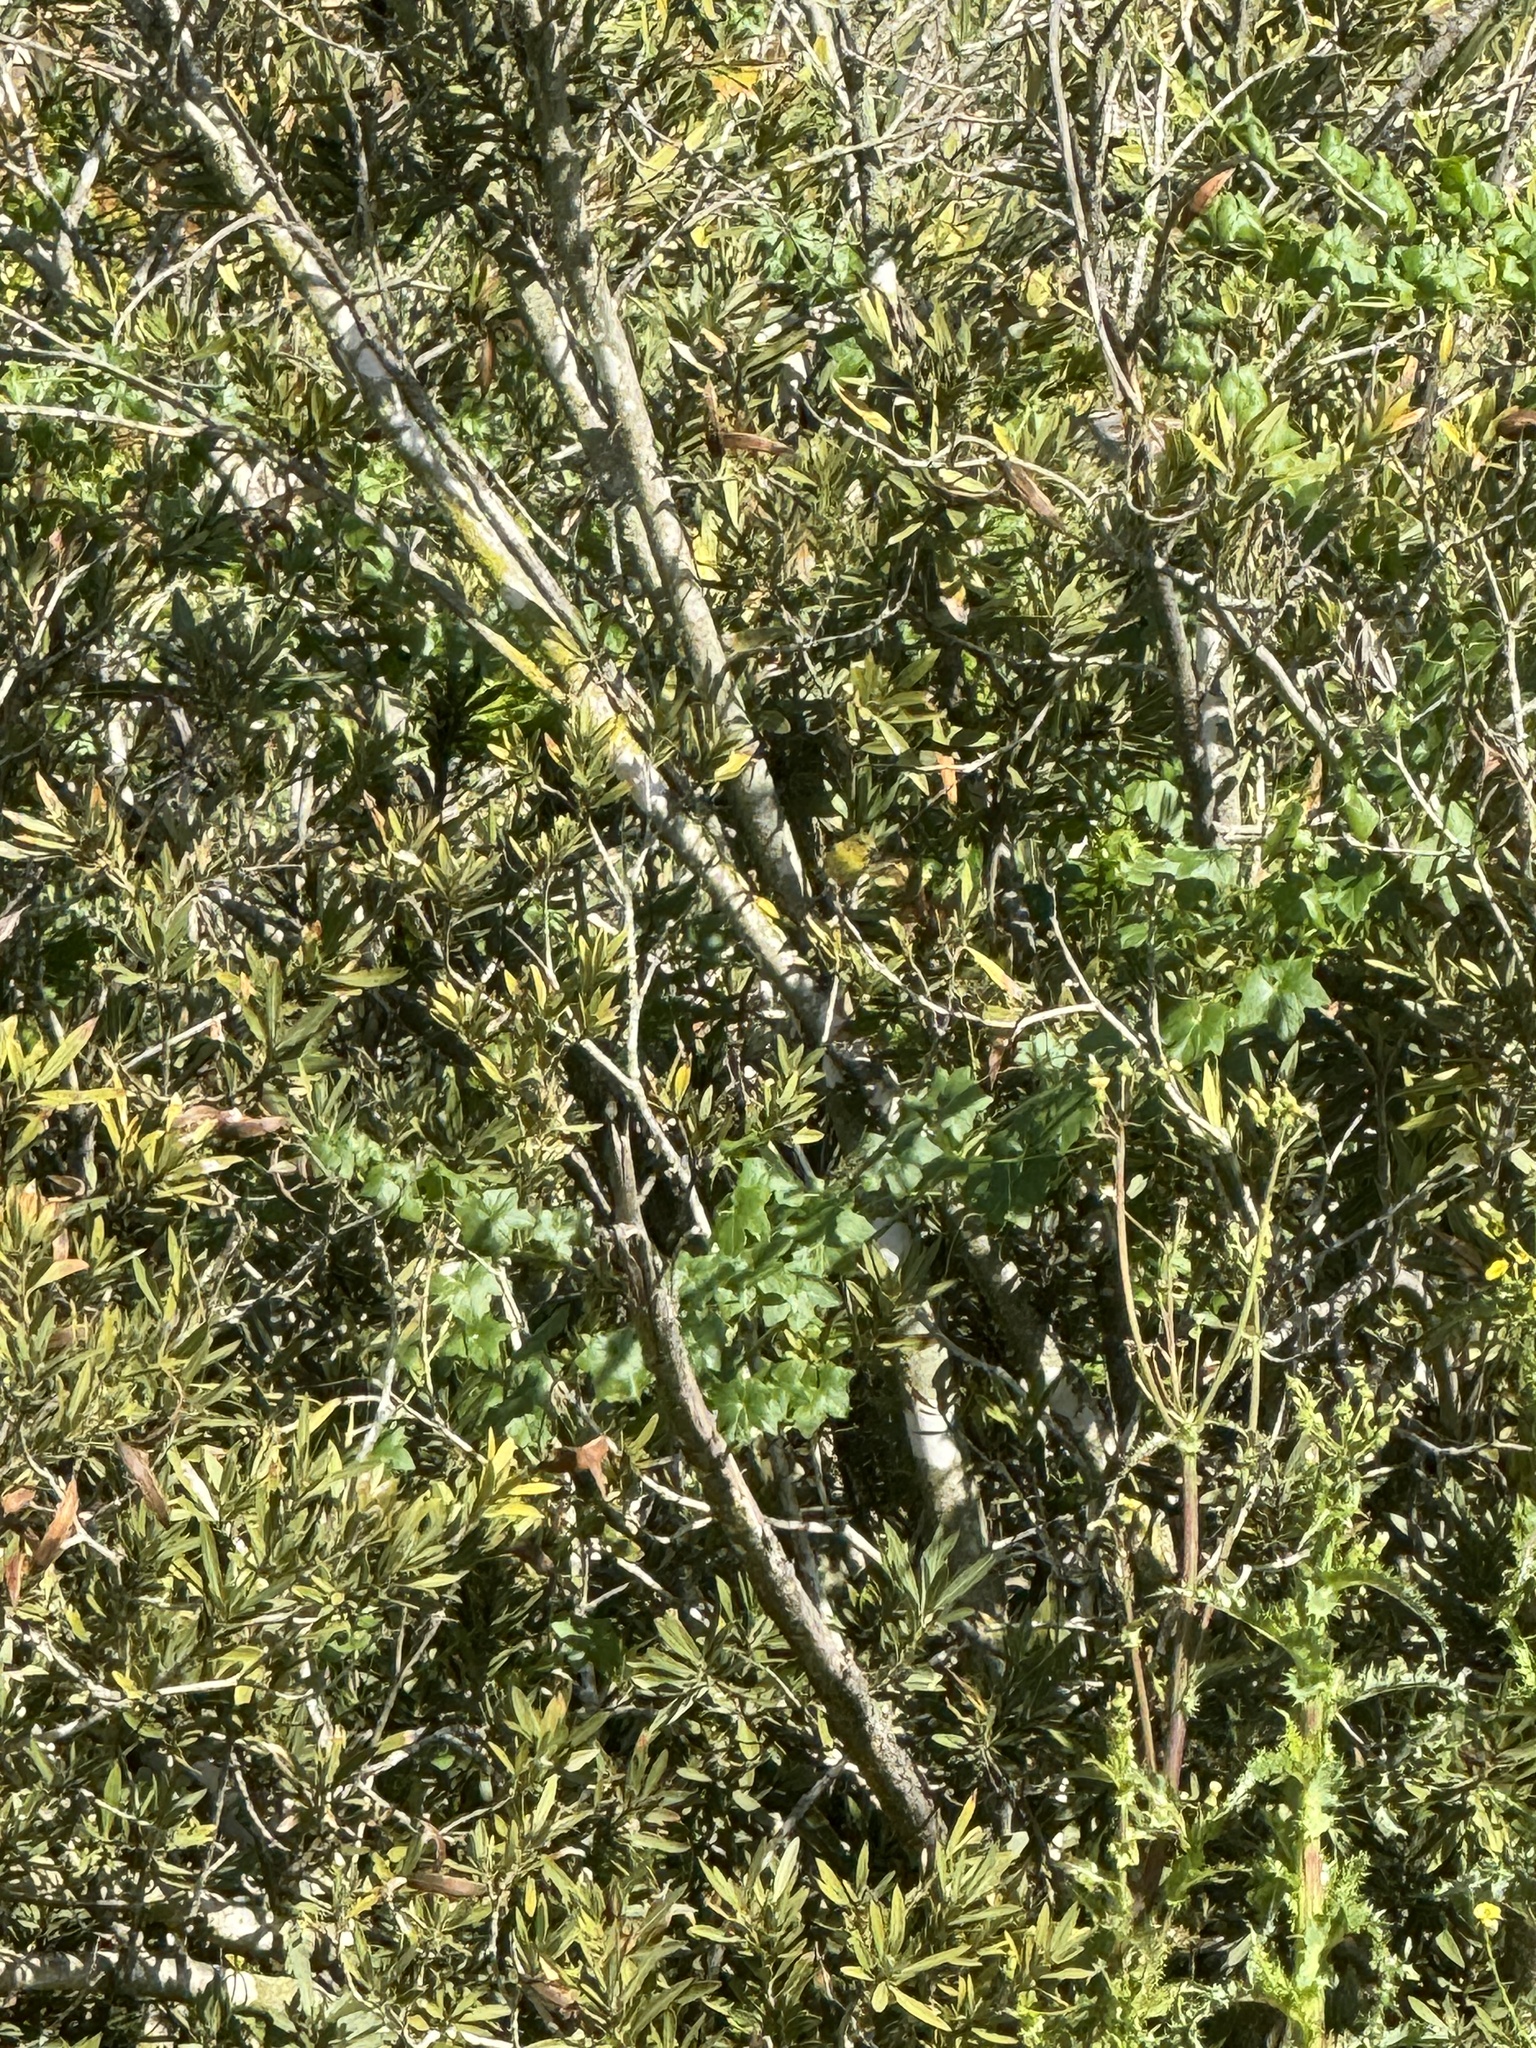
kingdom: Animalia
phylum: Chordata
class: Aves
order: Passeriformes
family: Fringillidae
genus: Spinus
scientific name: Spinus psaltria
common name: Lesser goldfinch
